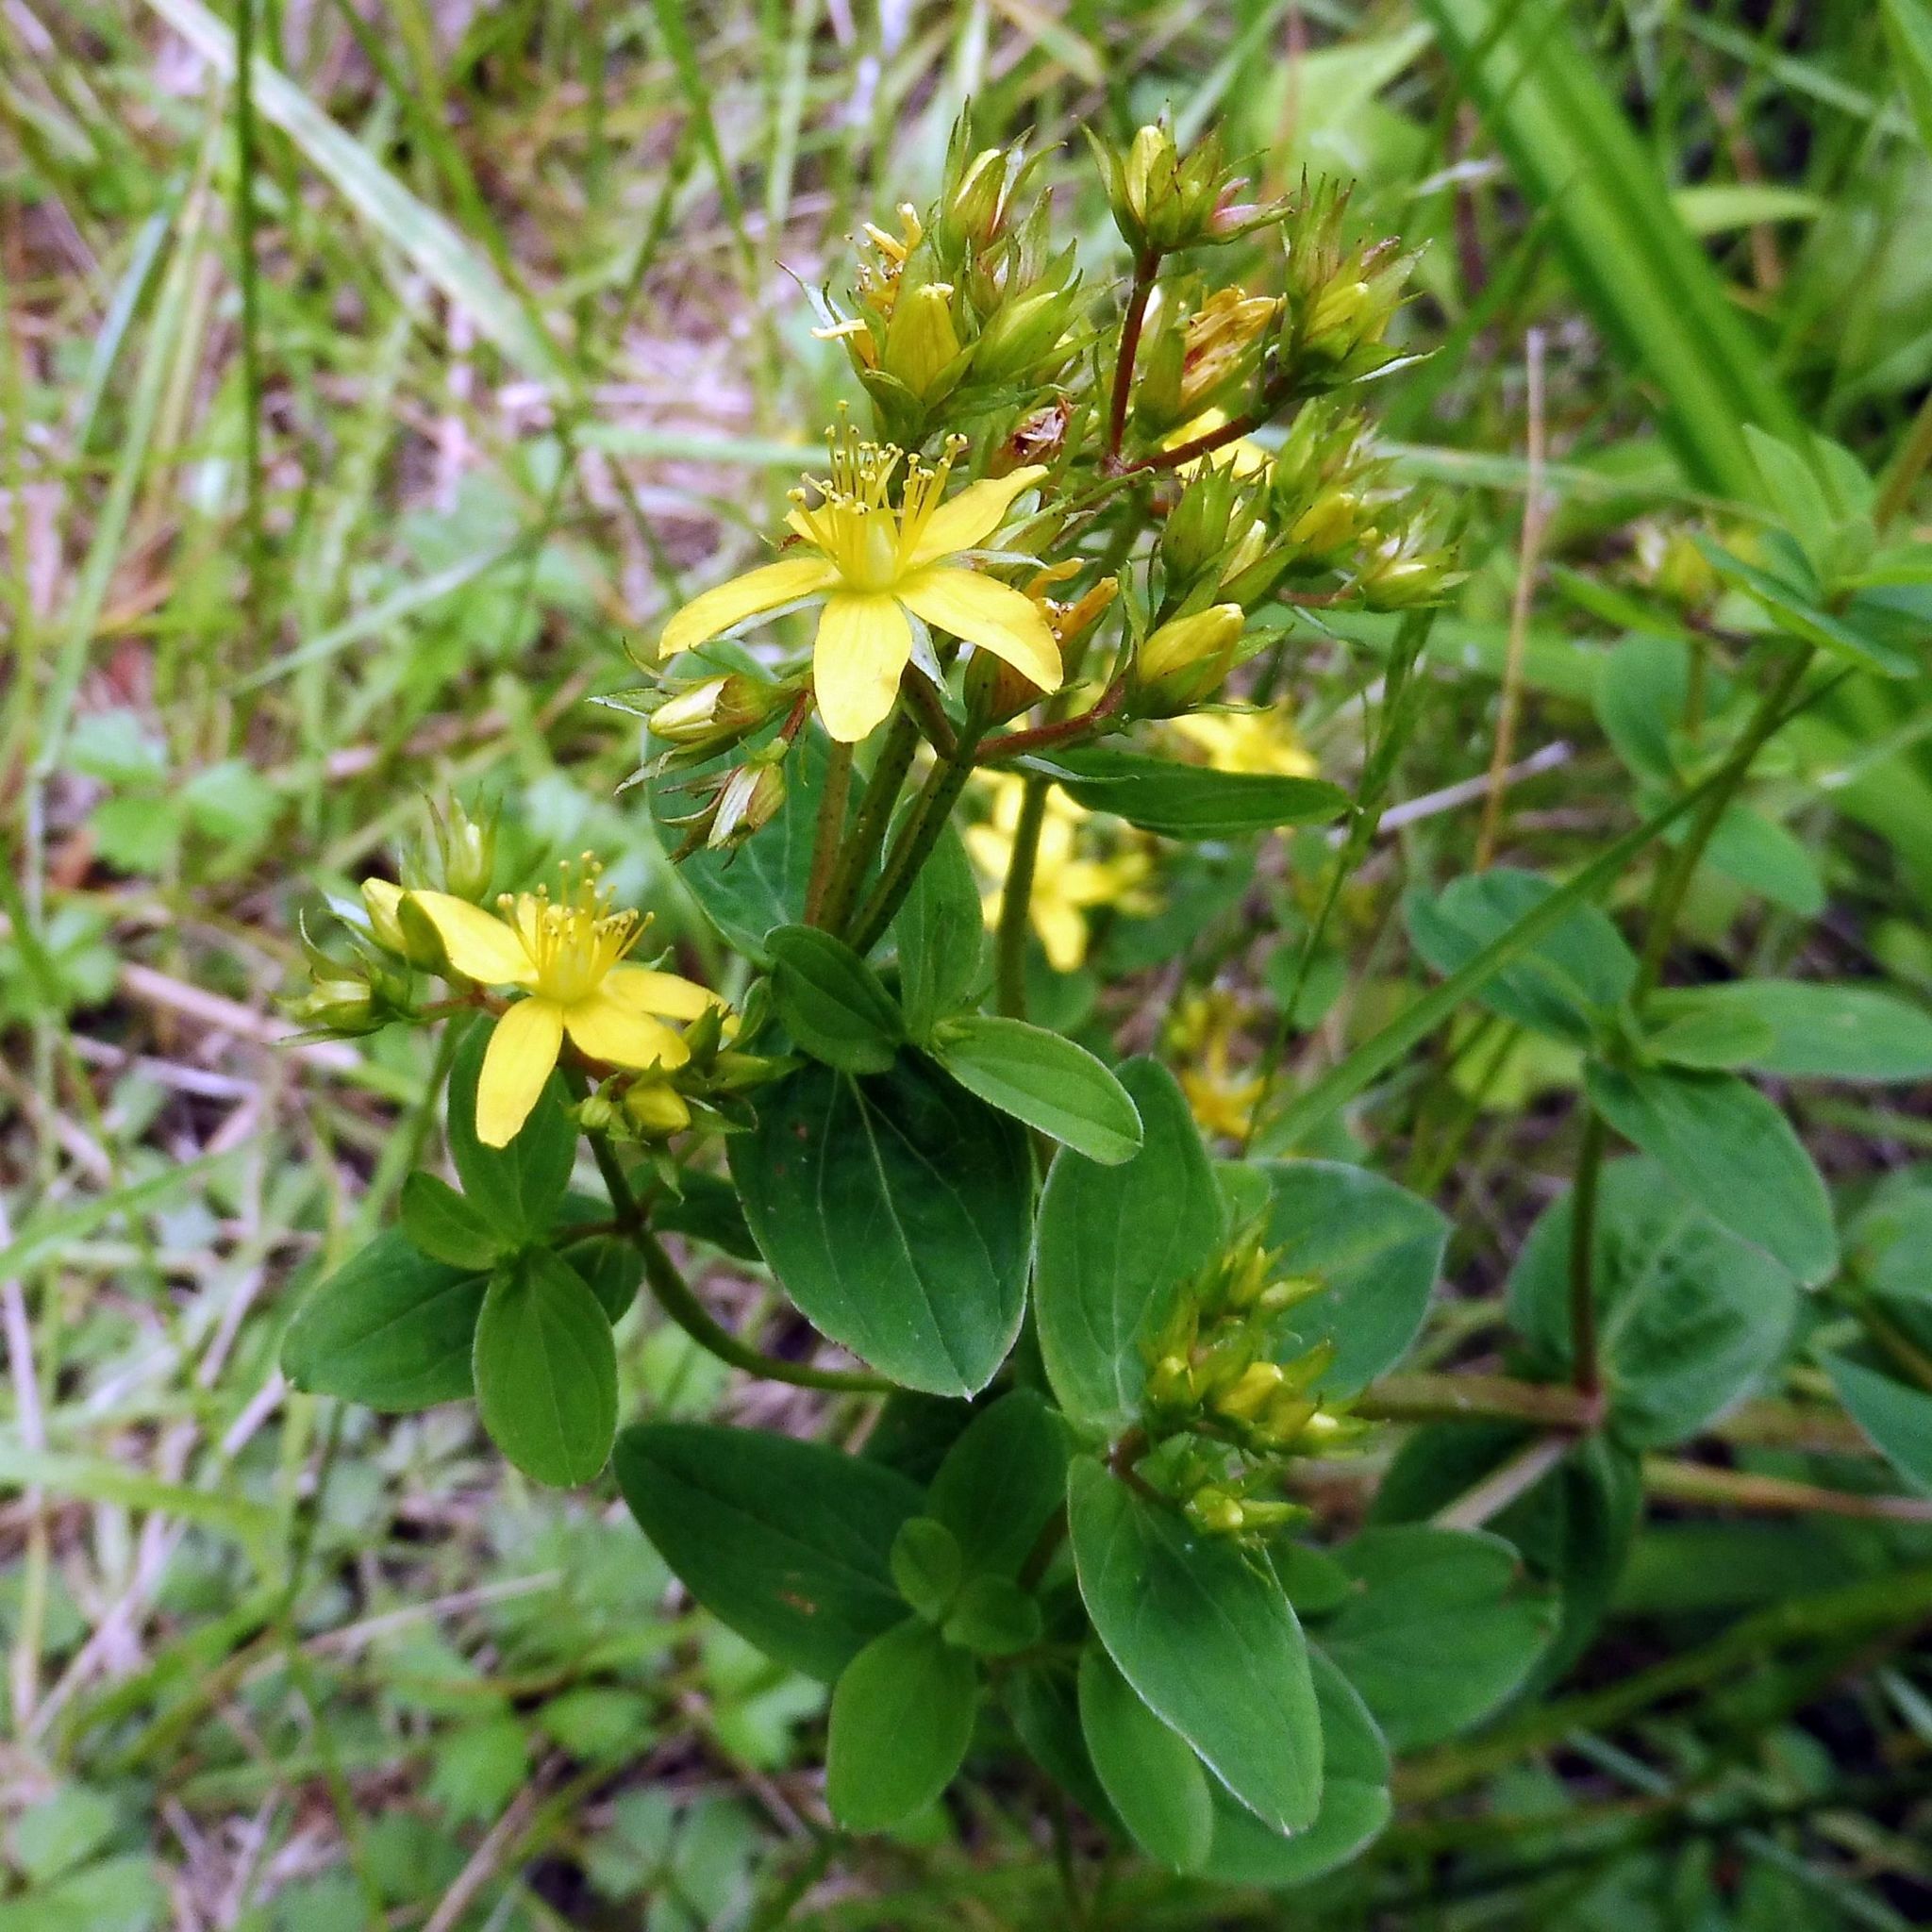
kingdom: Plantae
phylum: Tracheophyta
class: Magnoliopsida
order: Malpighiales
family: Hypericaceae
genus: Hypericum
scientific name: Hypericum tetrapterum
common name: Square-stalked st. john's-wort
